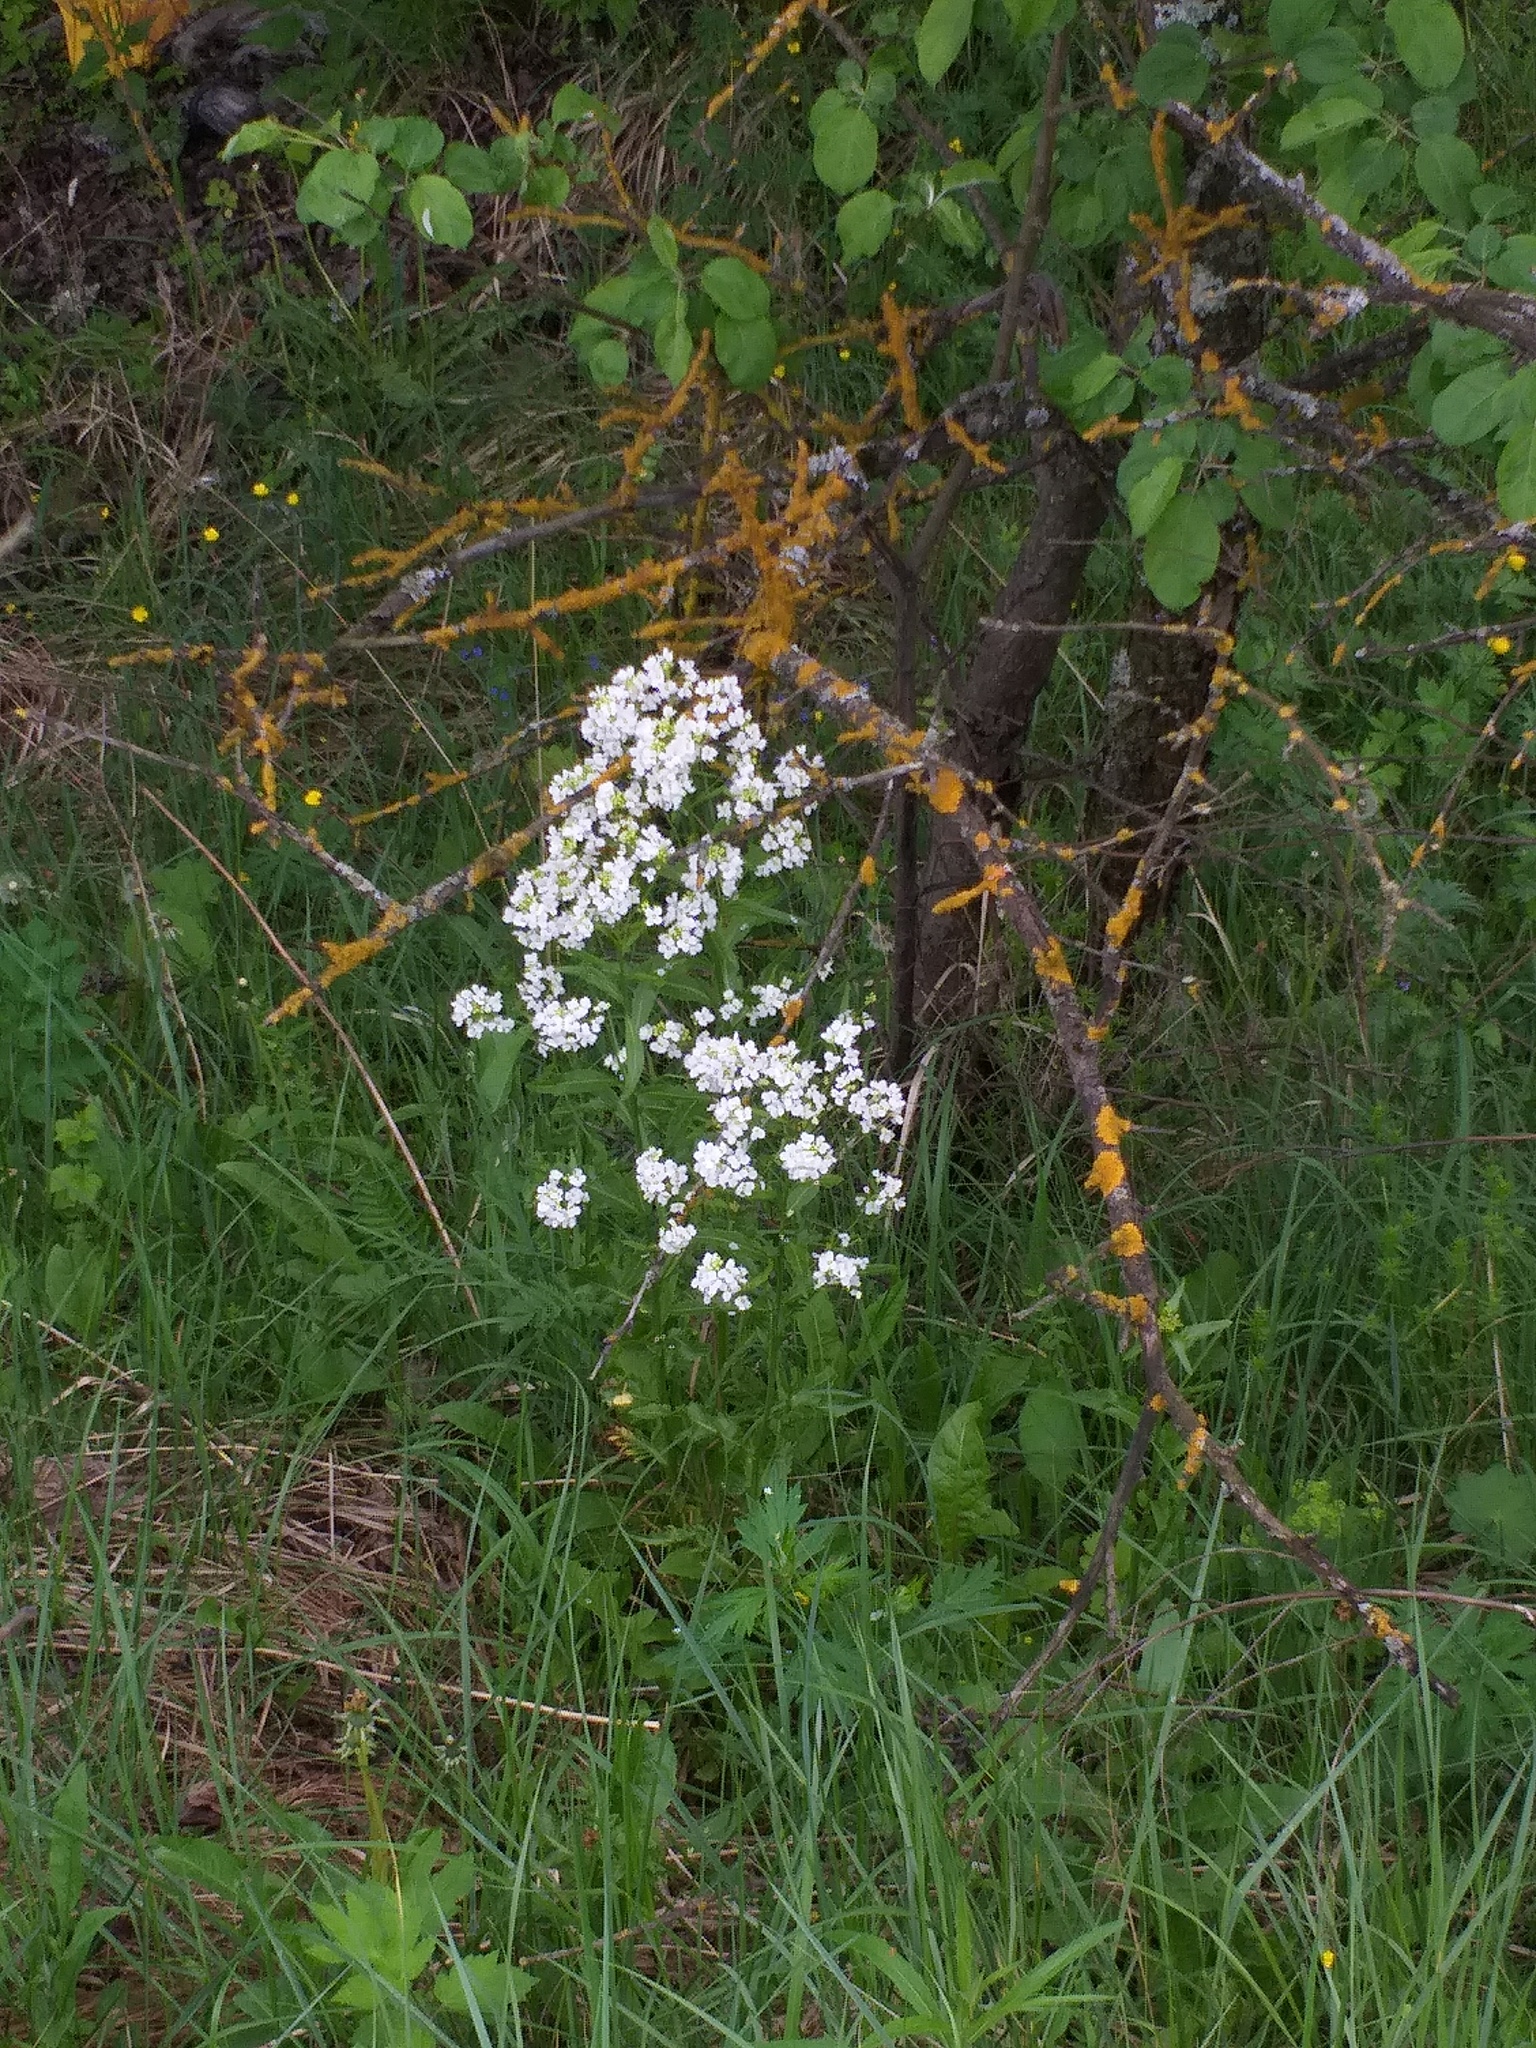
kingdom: Plantae
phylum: Tracheophyta
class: Magnoliopsida
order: Brassicales
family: Brassicaceae
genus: Armoracia
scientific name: Armoracia rusticana
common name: Horseradish
